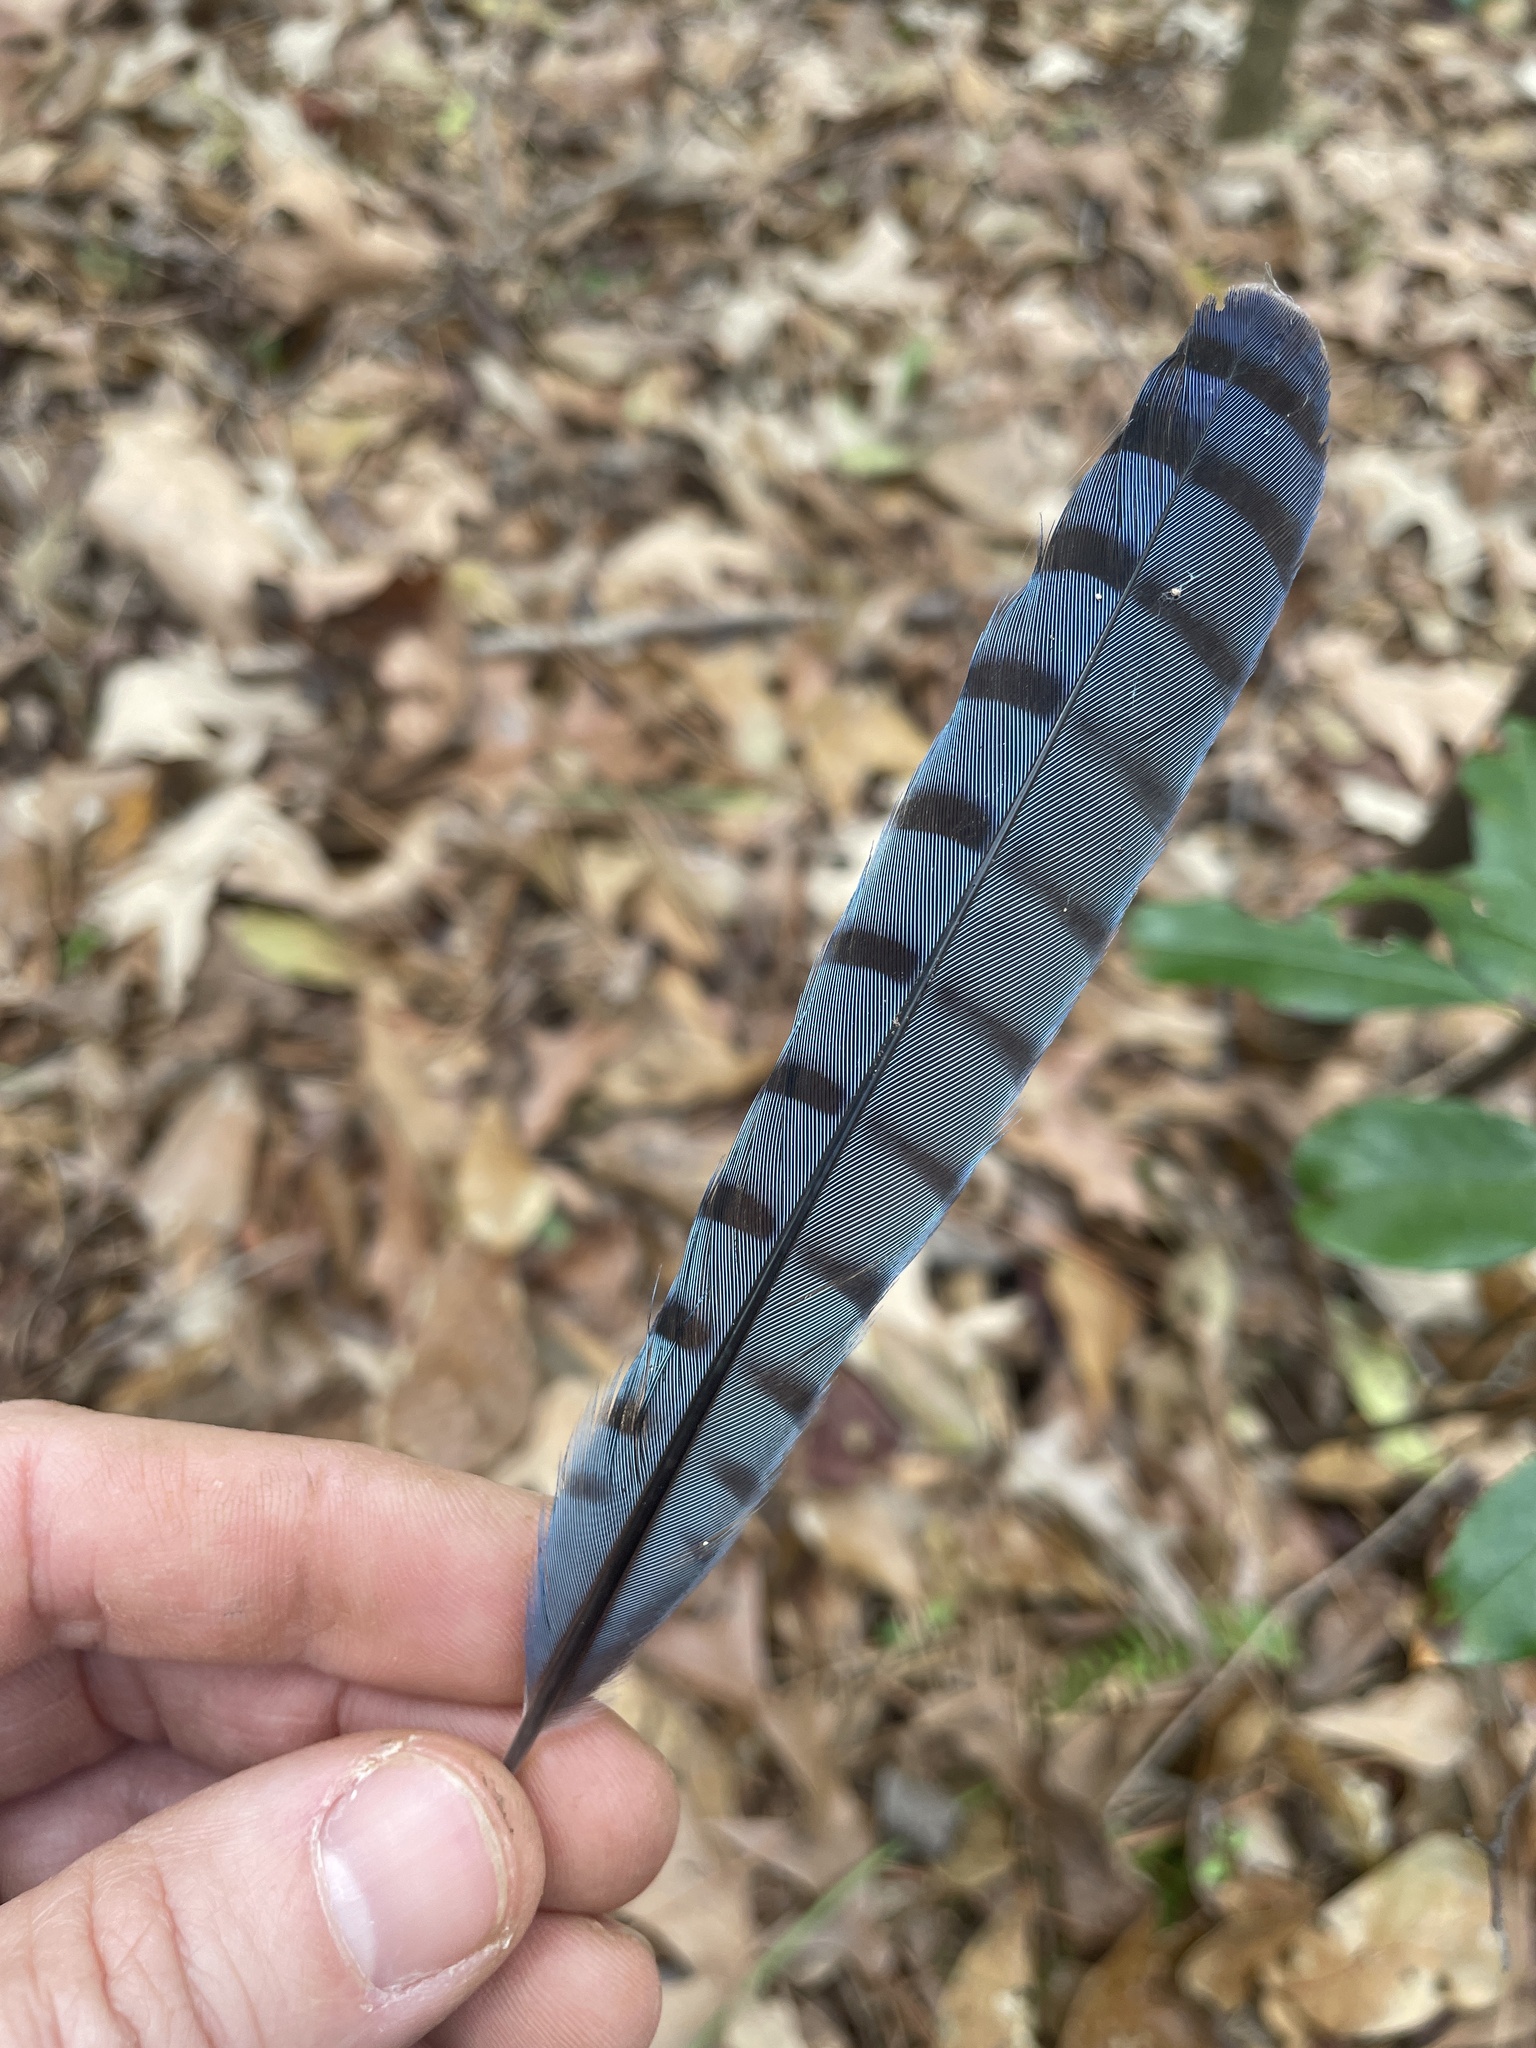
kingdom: Animalia
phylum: Chordata
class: Aves
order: Passeriformes
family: Corvidae
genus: Cyanocitta
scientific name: Cyanocitta cristata
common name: Blue jay
